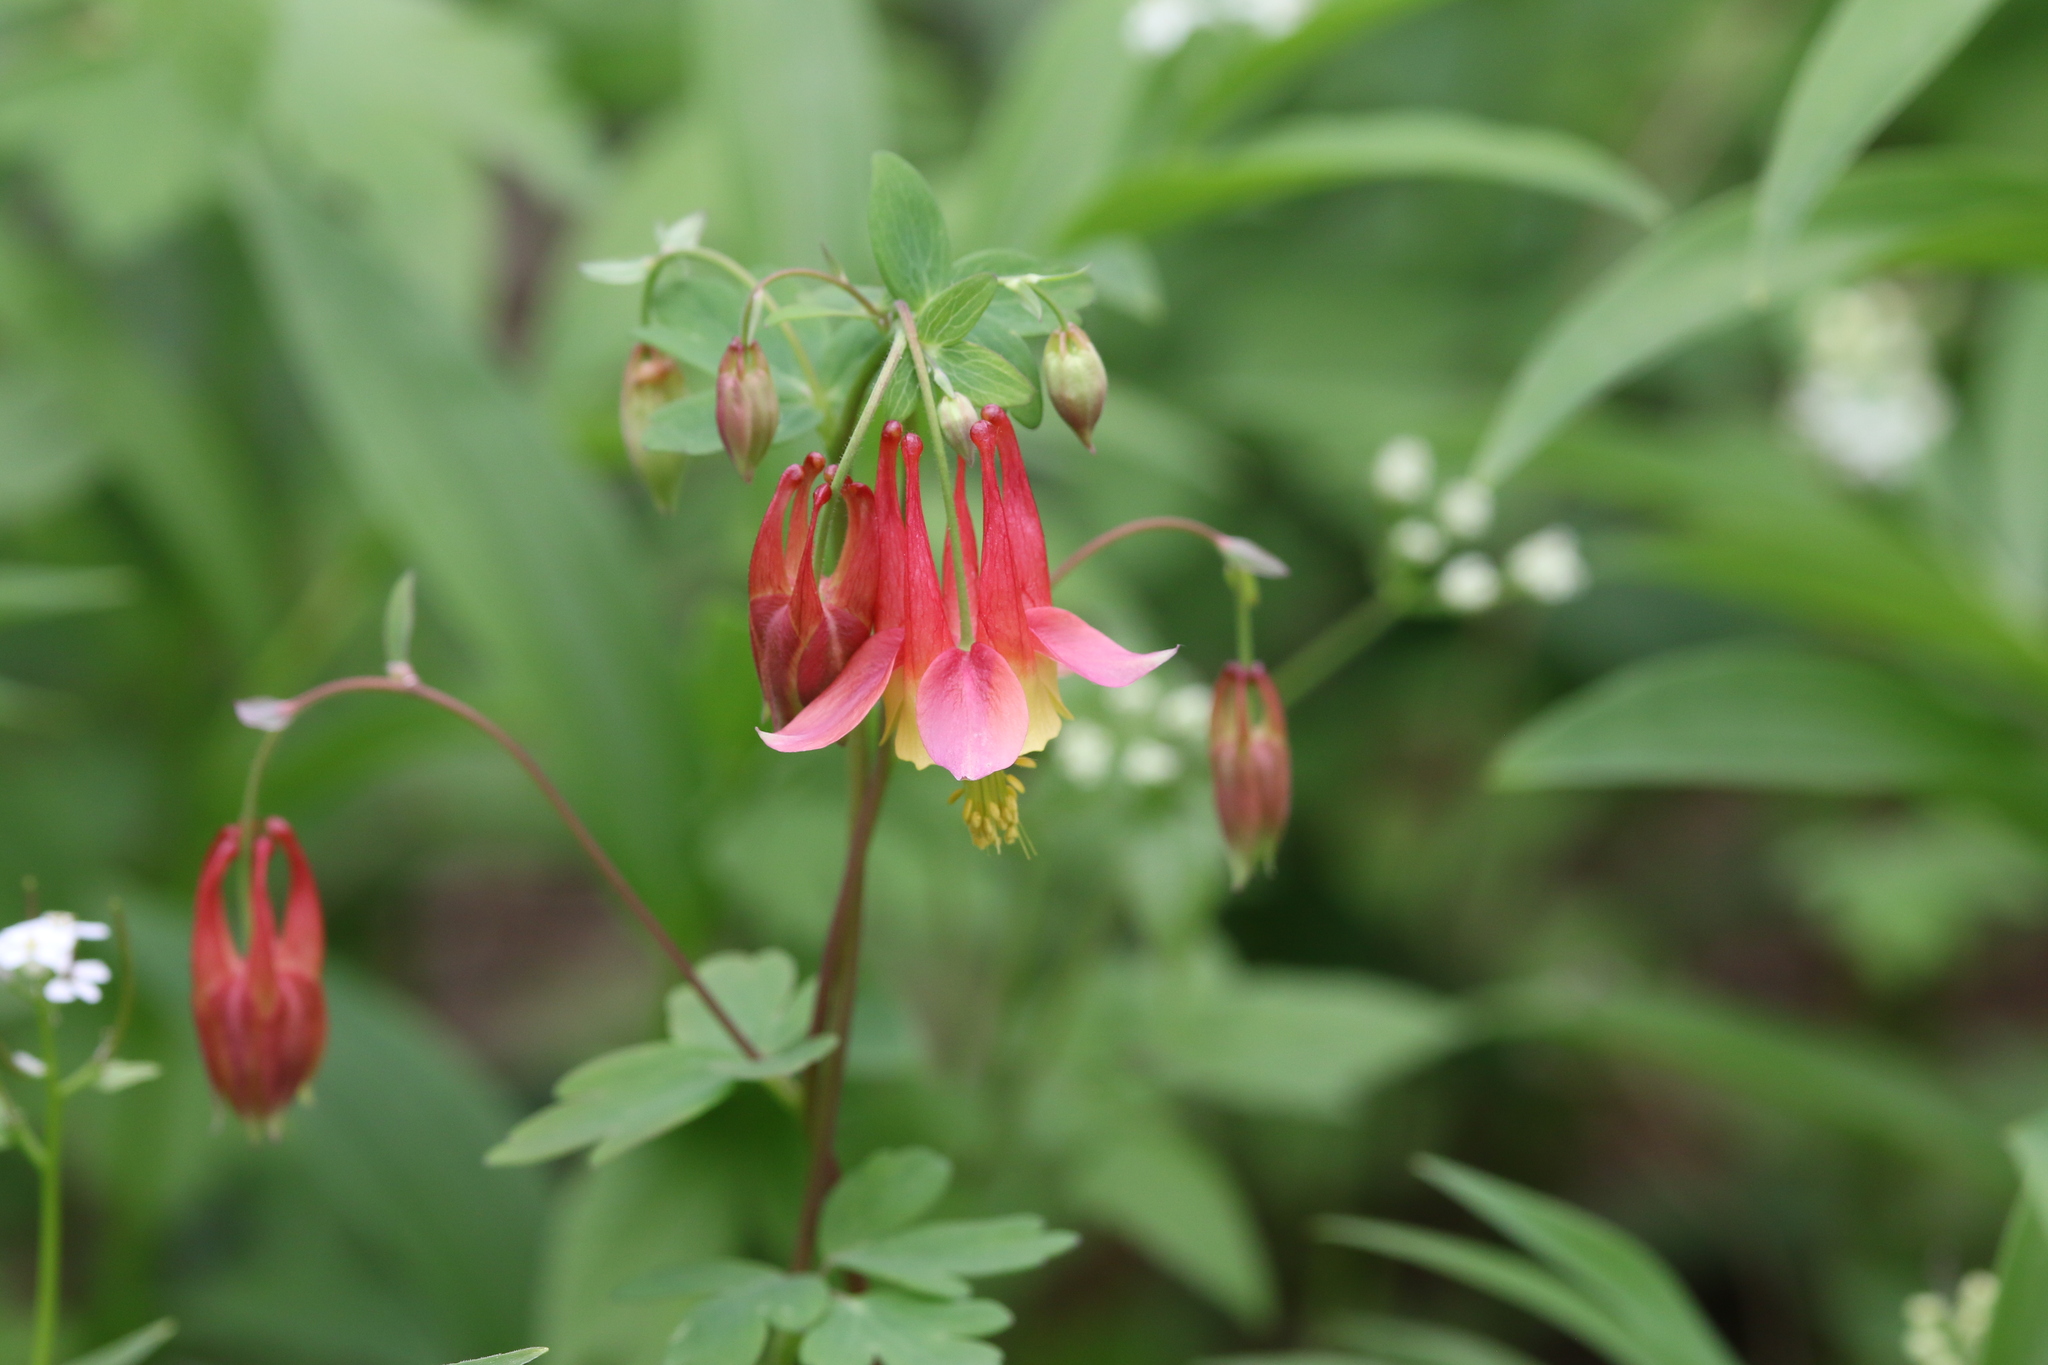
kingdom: Plantae
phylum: Tracheophyta
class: Magnoliopsida
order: Ranunculales
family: Ranunculaceae
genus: Aquilegia
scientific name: Aquilegia canadensis
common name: American columbine
